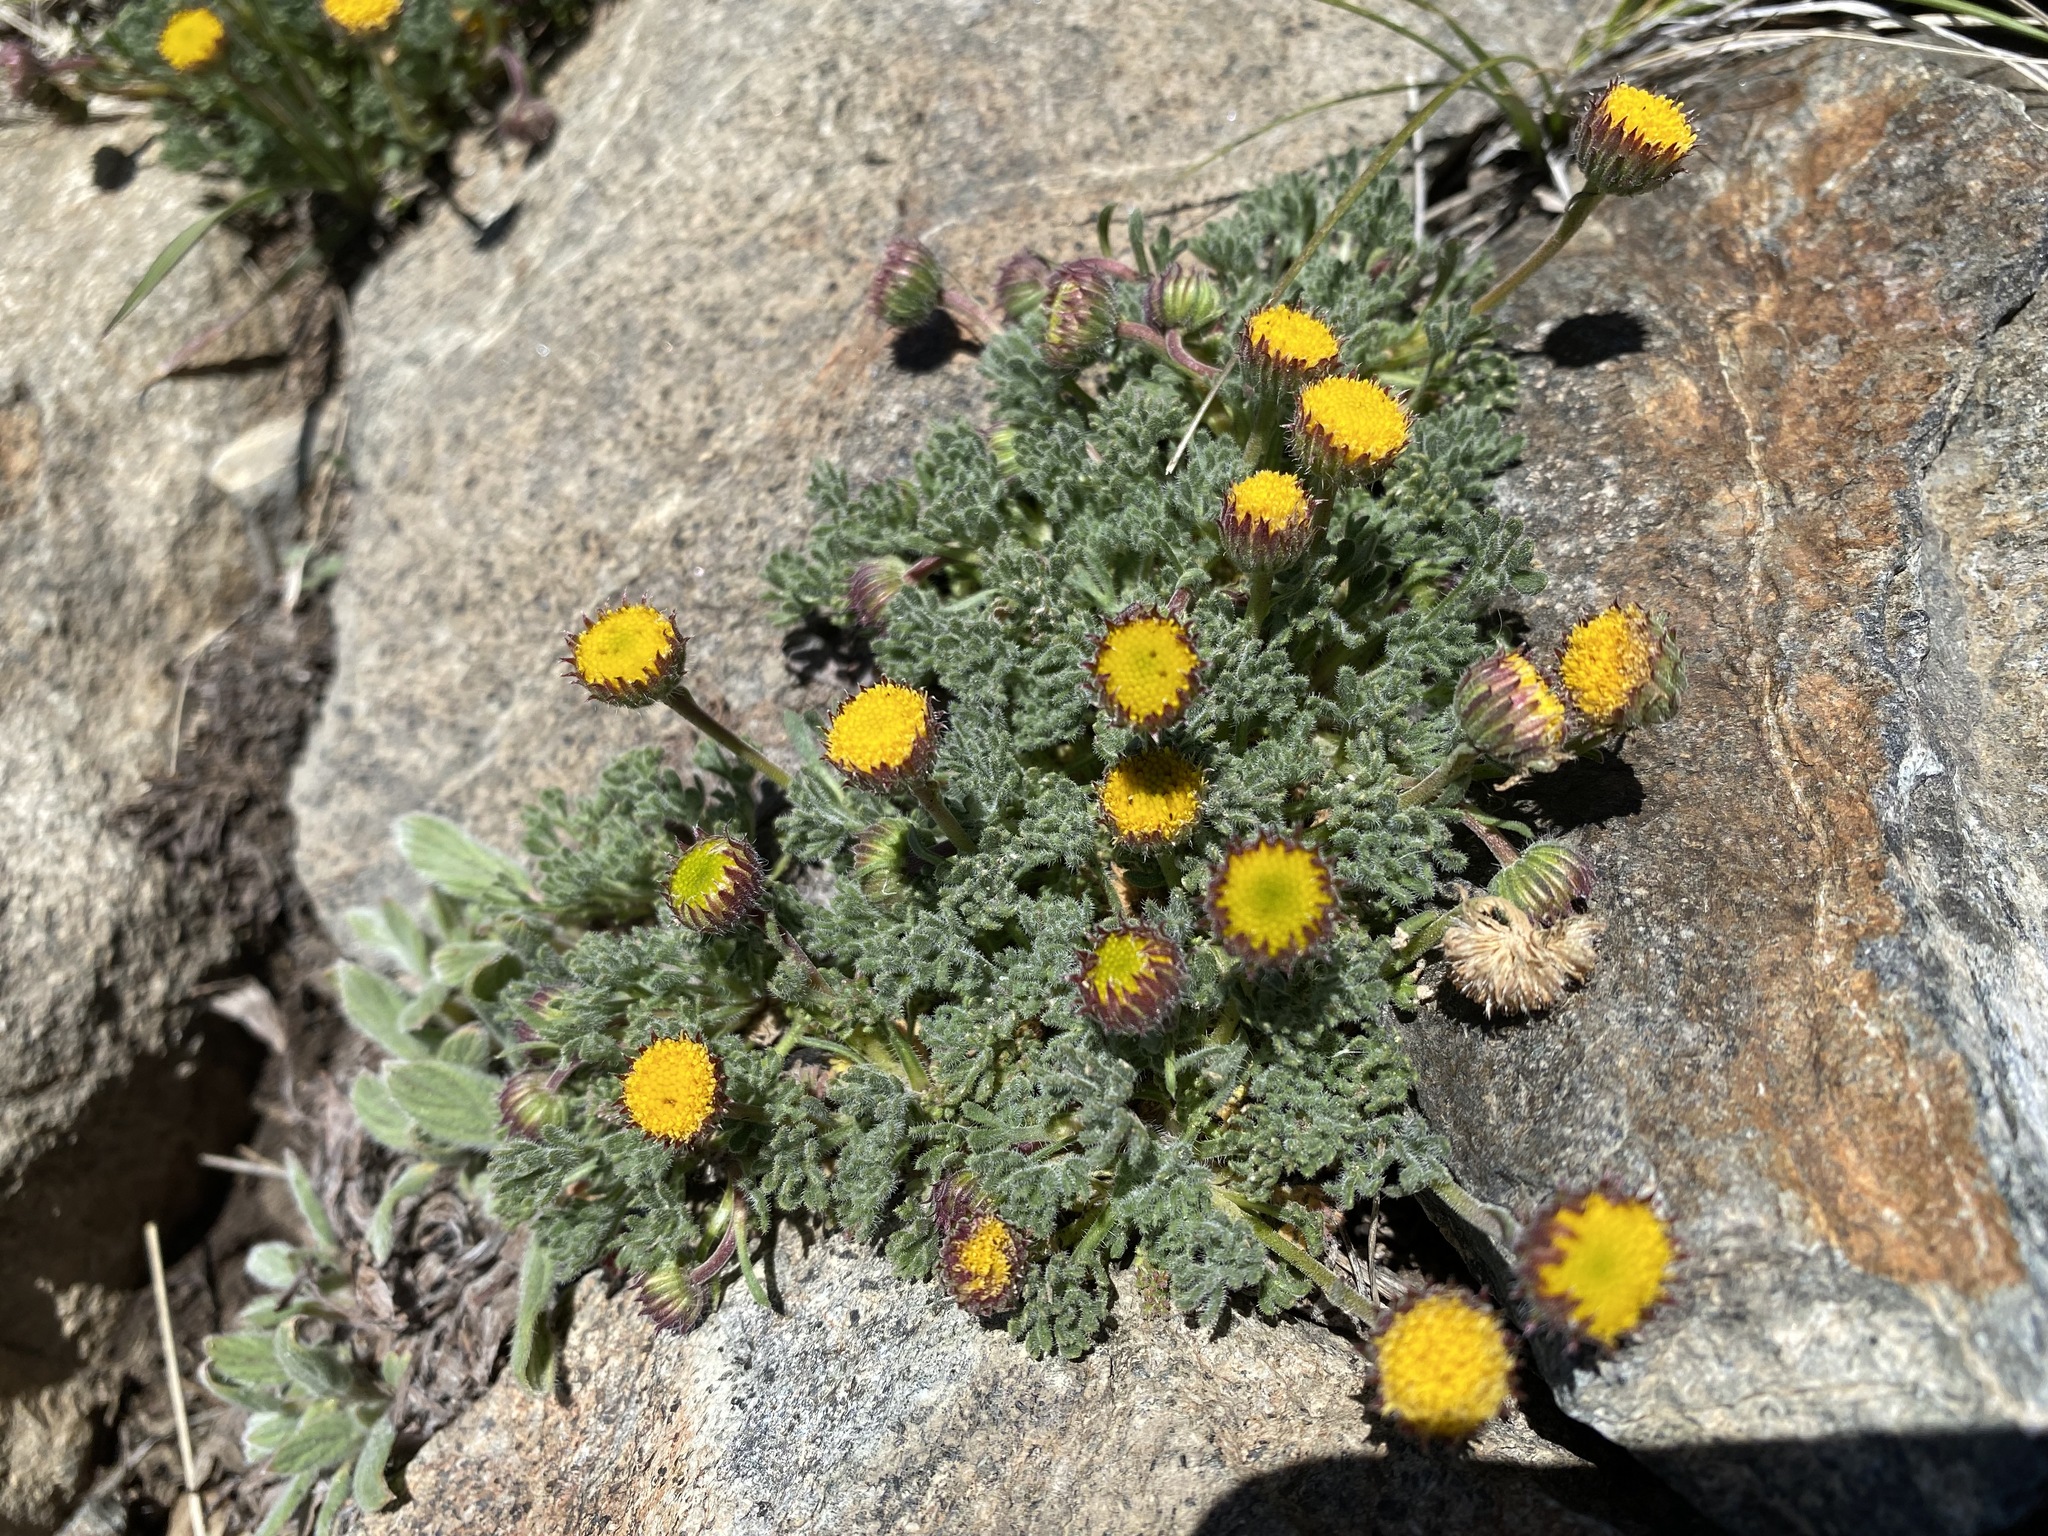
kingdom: Plantae
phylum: Tracheophyta
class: Magnoliopsida
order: Asterales
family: Asteraceae
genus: Erigeron
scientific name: Erigeron compositus
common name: Dwarf mountain fleabane
